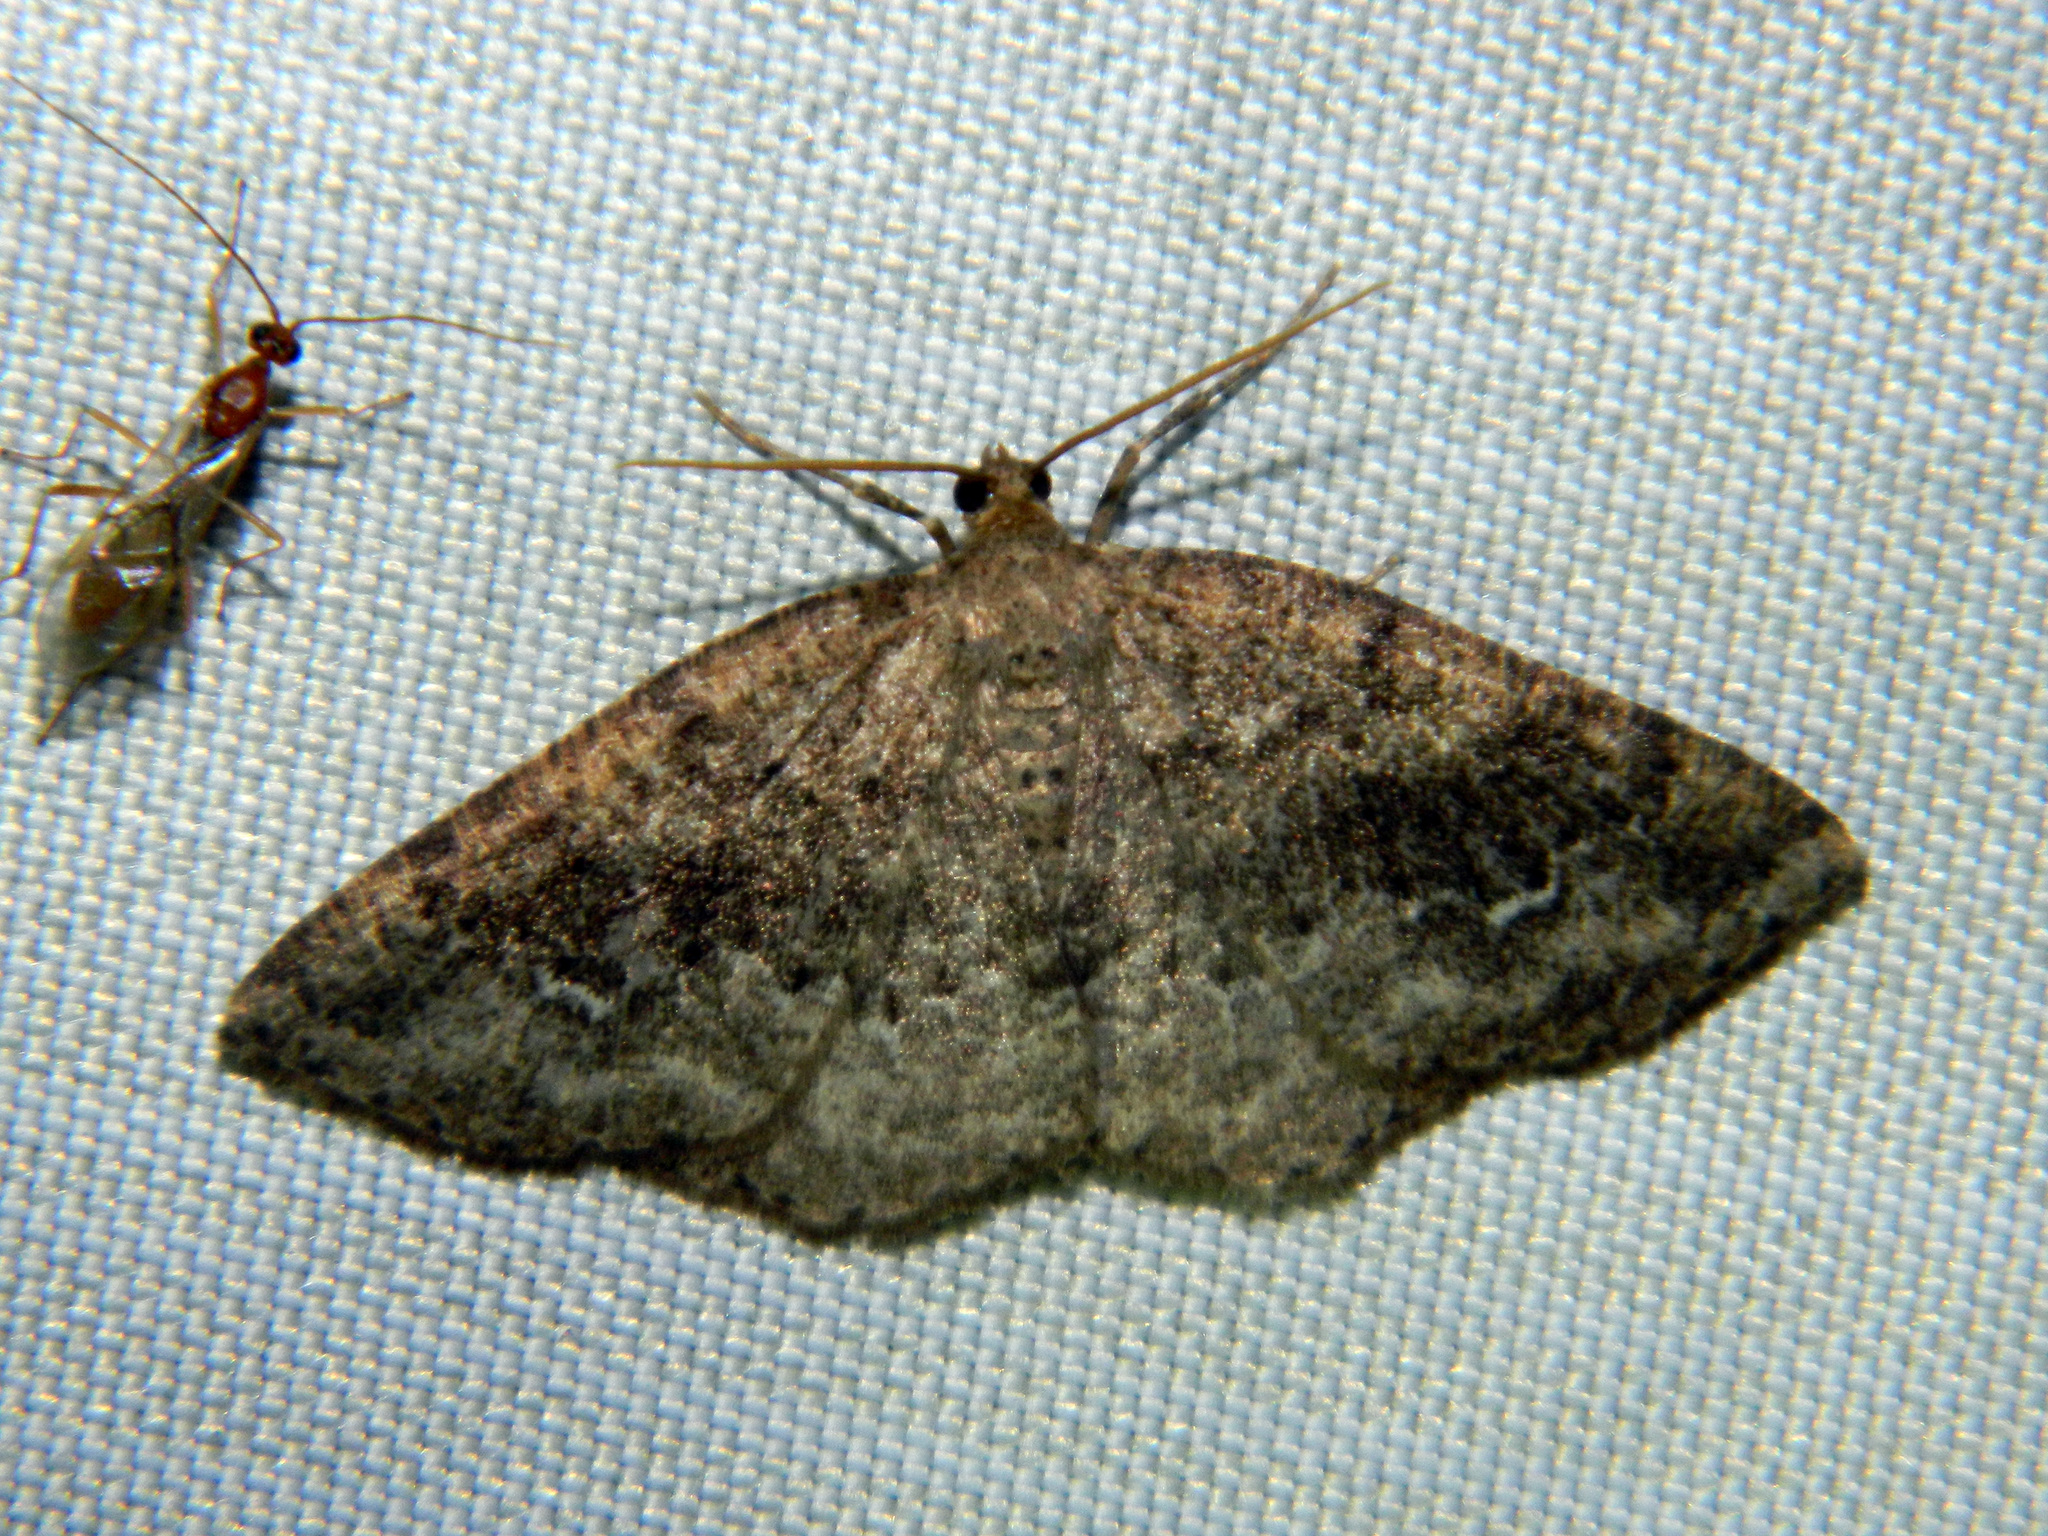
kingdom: Animalia
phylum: Arthropoda
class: Insecta
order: Lepidoptera
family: Geometridae
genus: Homochlodes
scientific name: Homochlodes fritillaria
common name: Pale homochlodes
